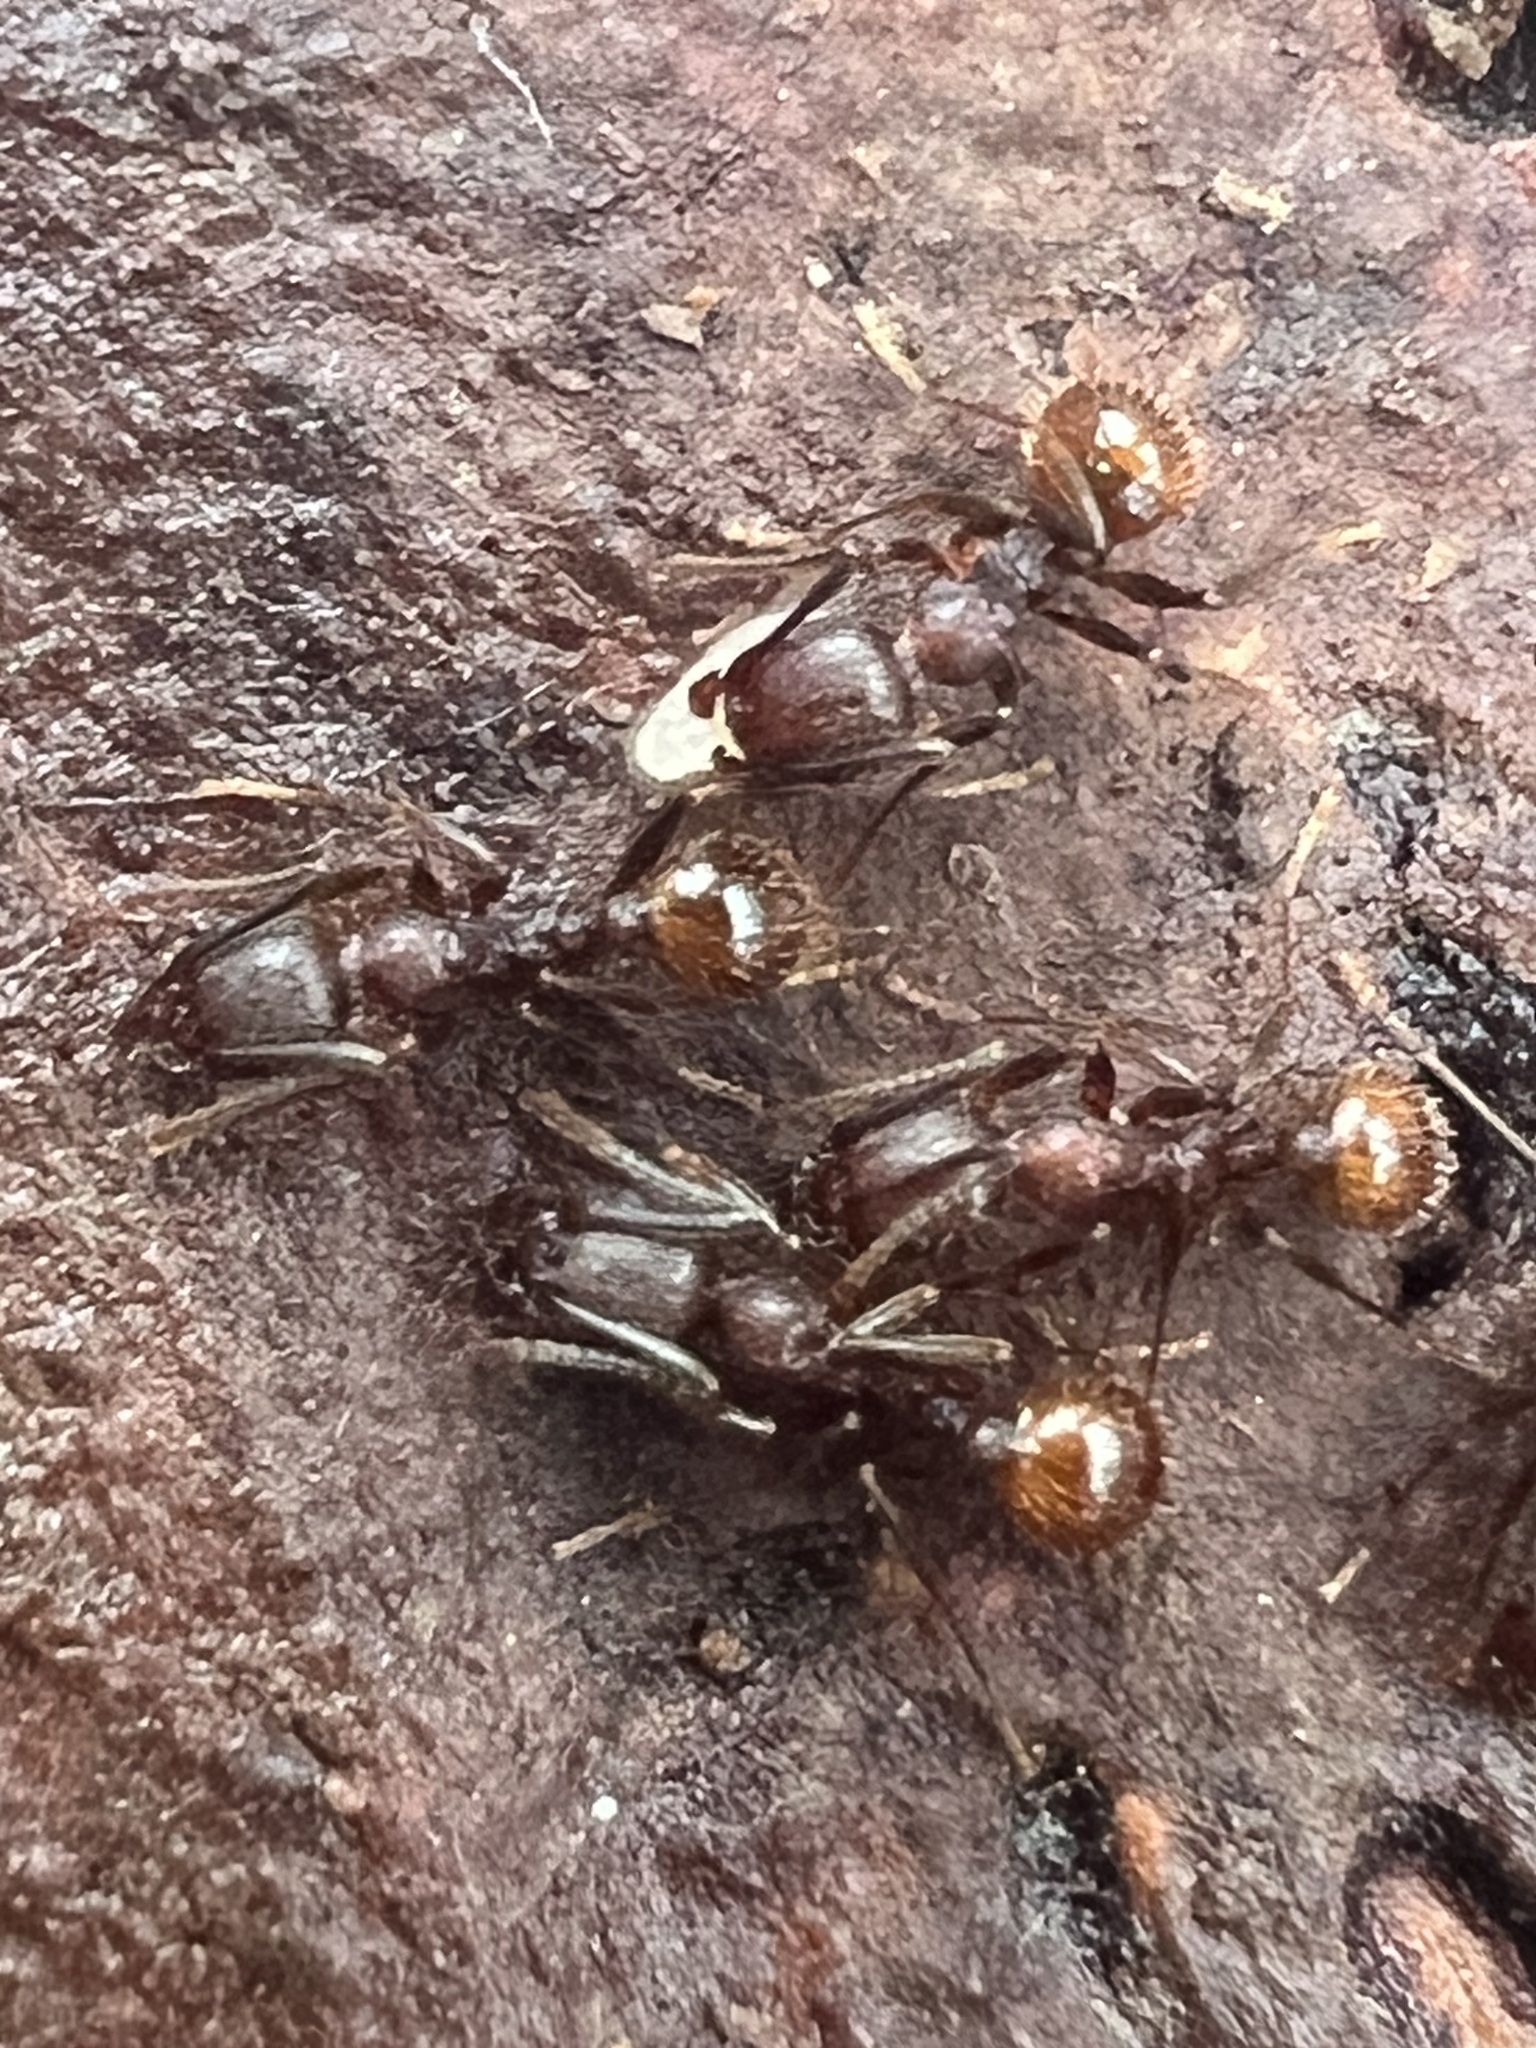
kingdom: Animalia
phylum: Arthropoda
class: Insecta
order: Hymenoptera
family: Formicidae
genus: Aphaenogaster
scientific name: Aphaenogaster fulva
